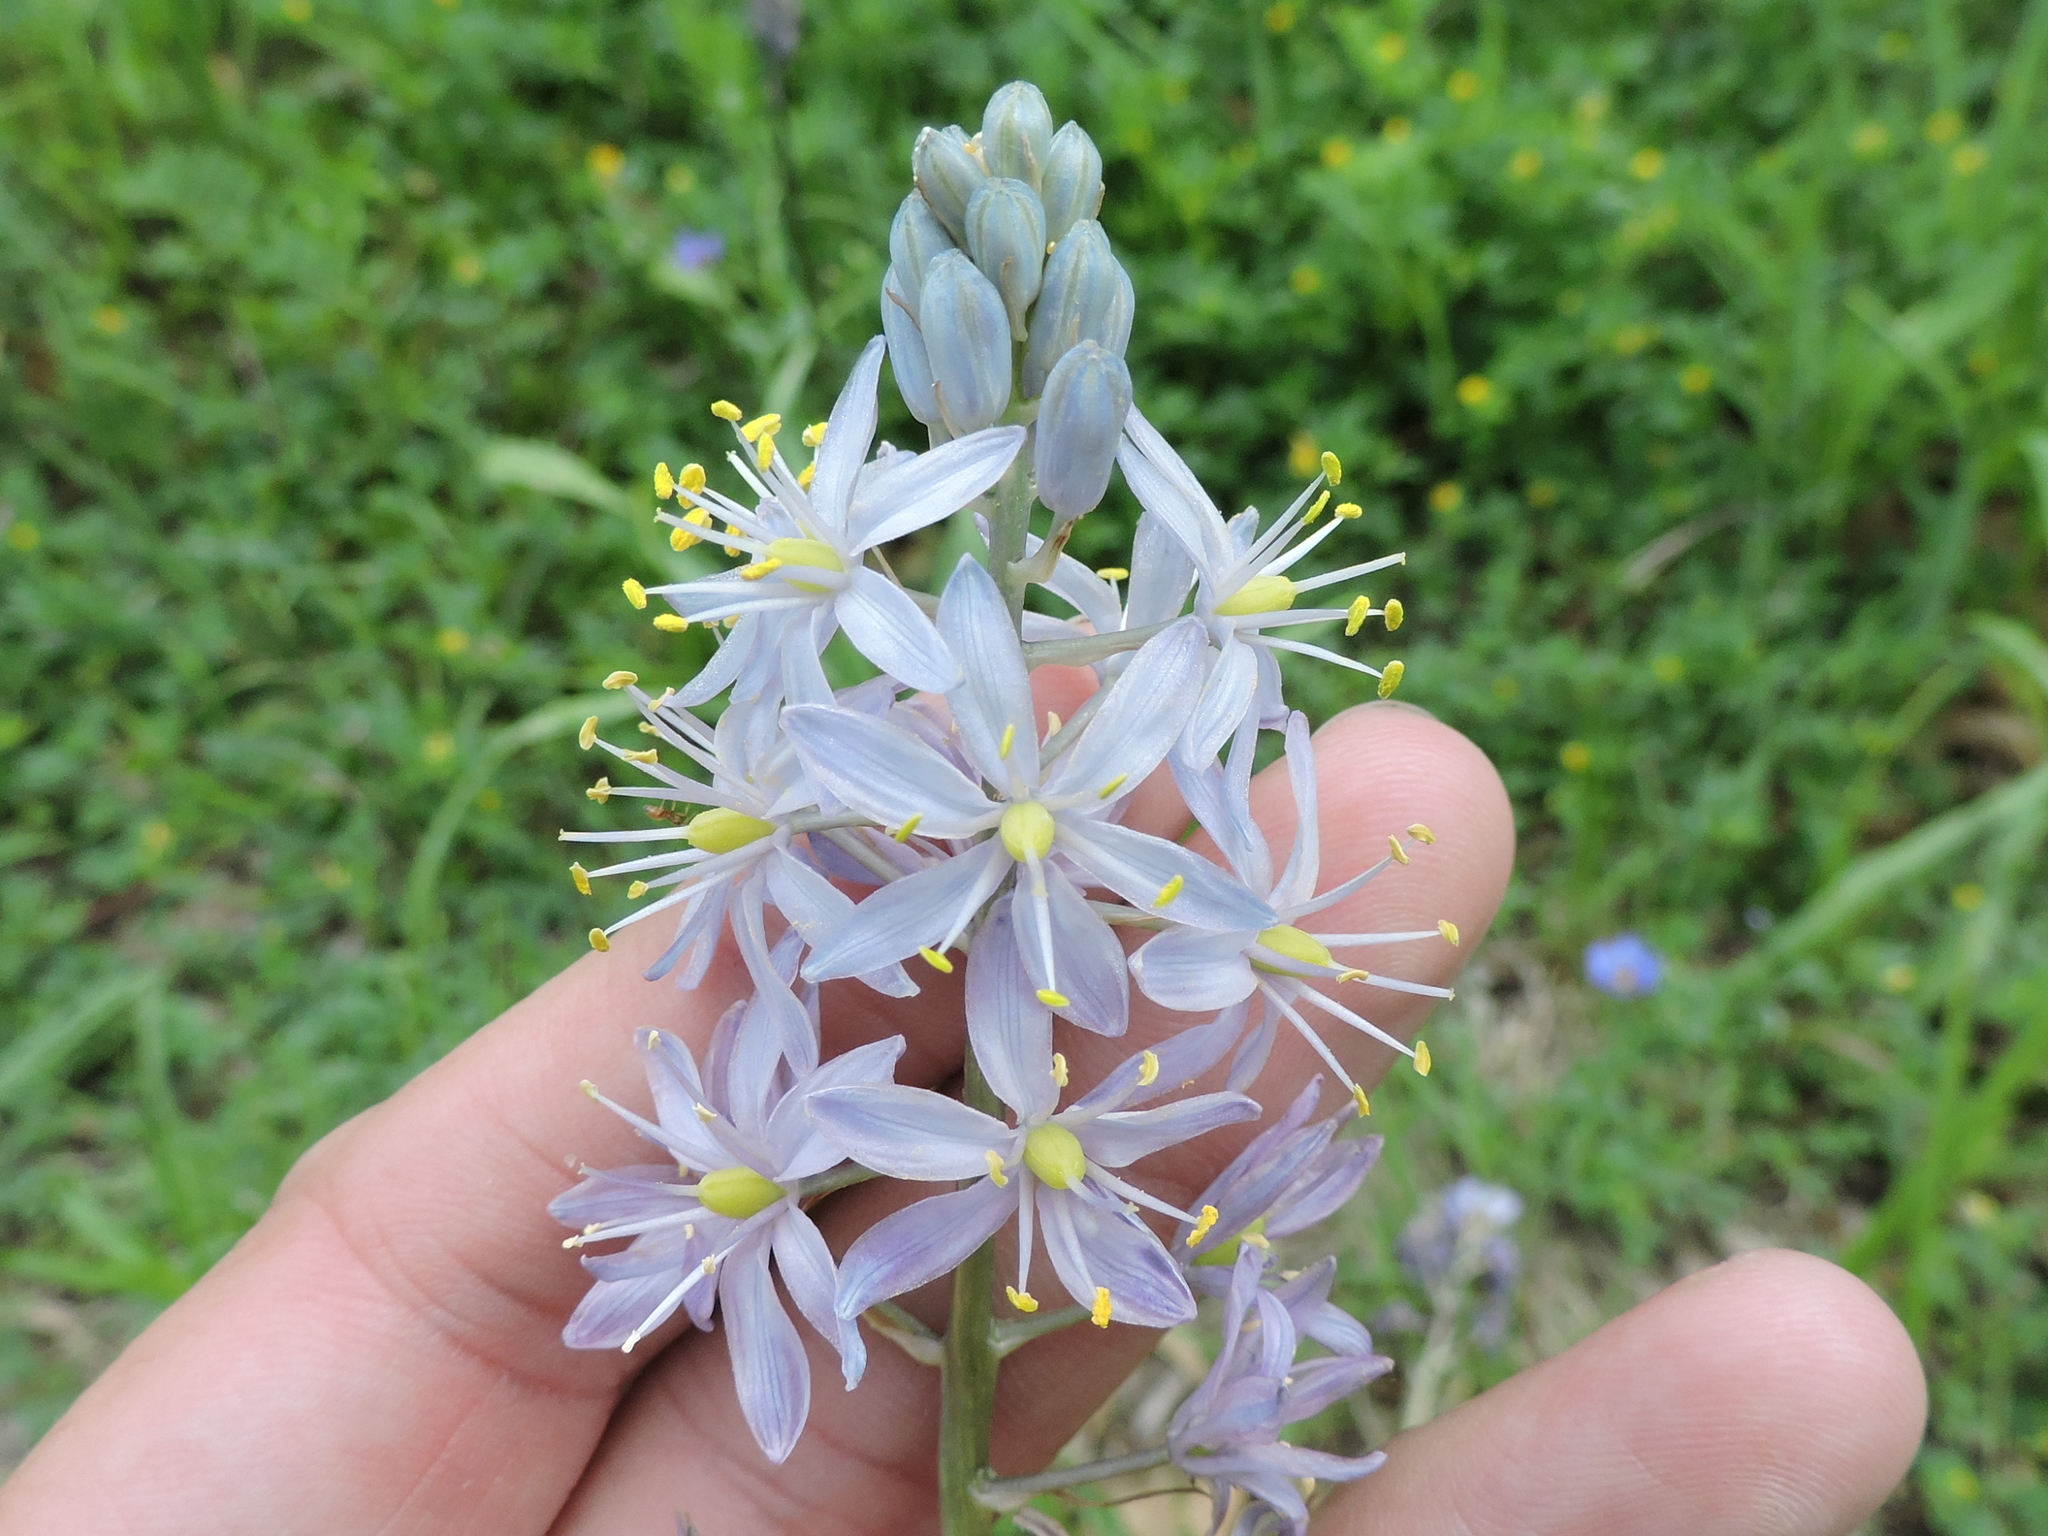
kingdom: Plantae
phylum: Tracheophyta
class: Liliopsida
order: Asparagales
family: Asparagaceae
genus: Camassia
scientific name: Camassia scilloides
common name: Wild hyacinth
